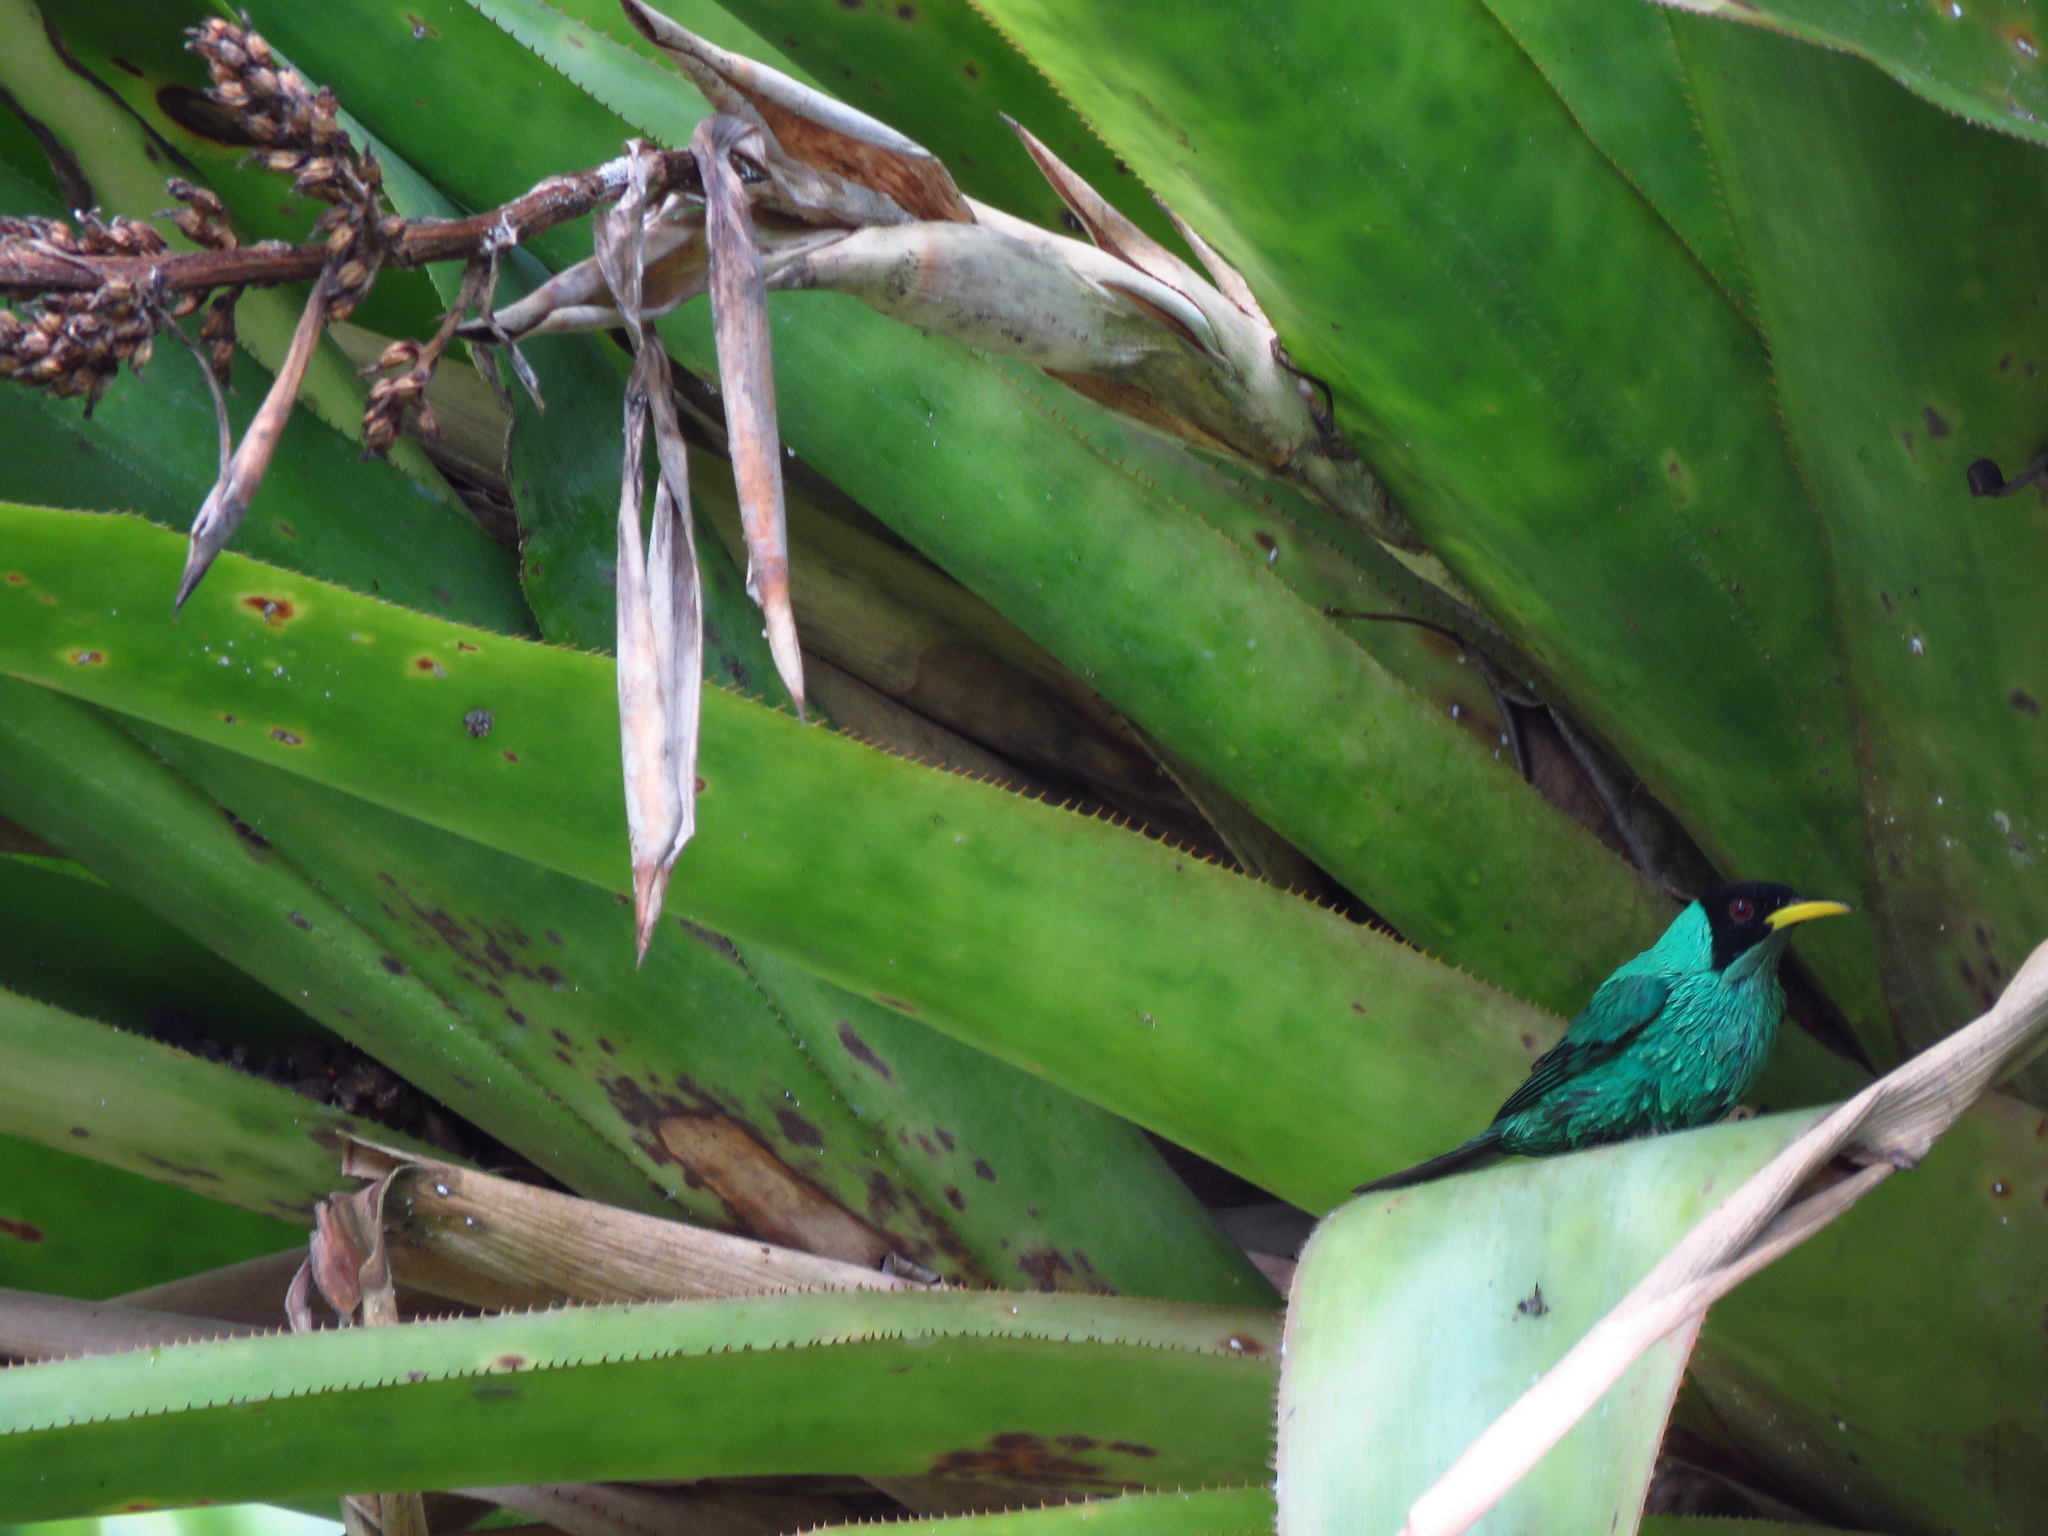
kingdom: Animalia
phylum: Chordata
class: Aves
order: Passeriformes
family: Thraupidae
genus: Chlorophanes
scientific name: Chlorophanes spiza
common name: Green honeycreeper
